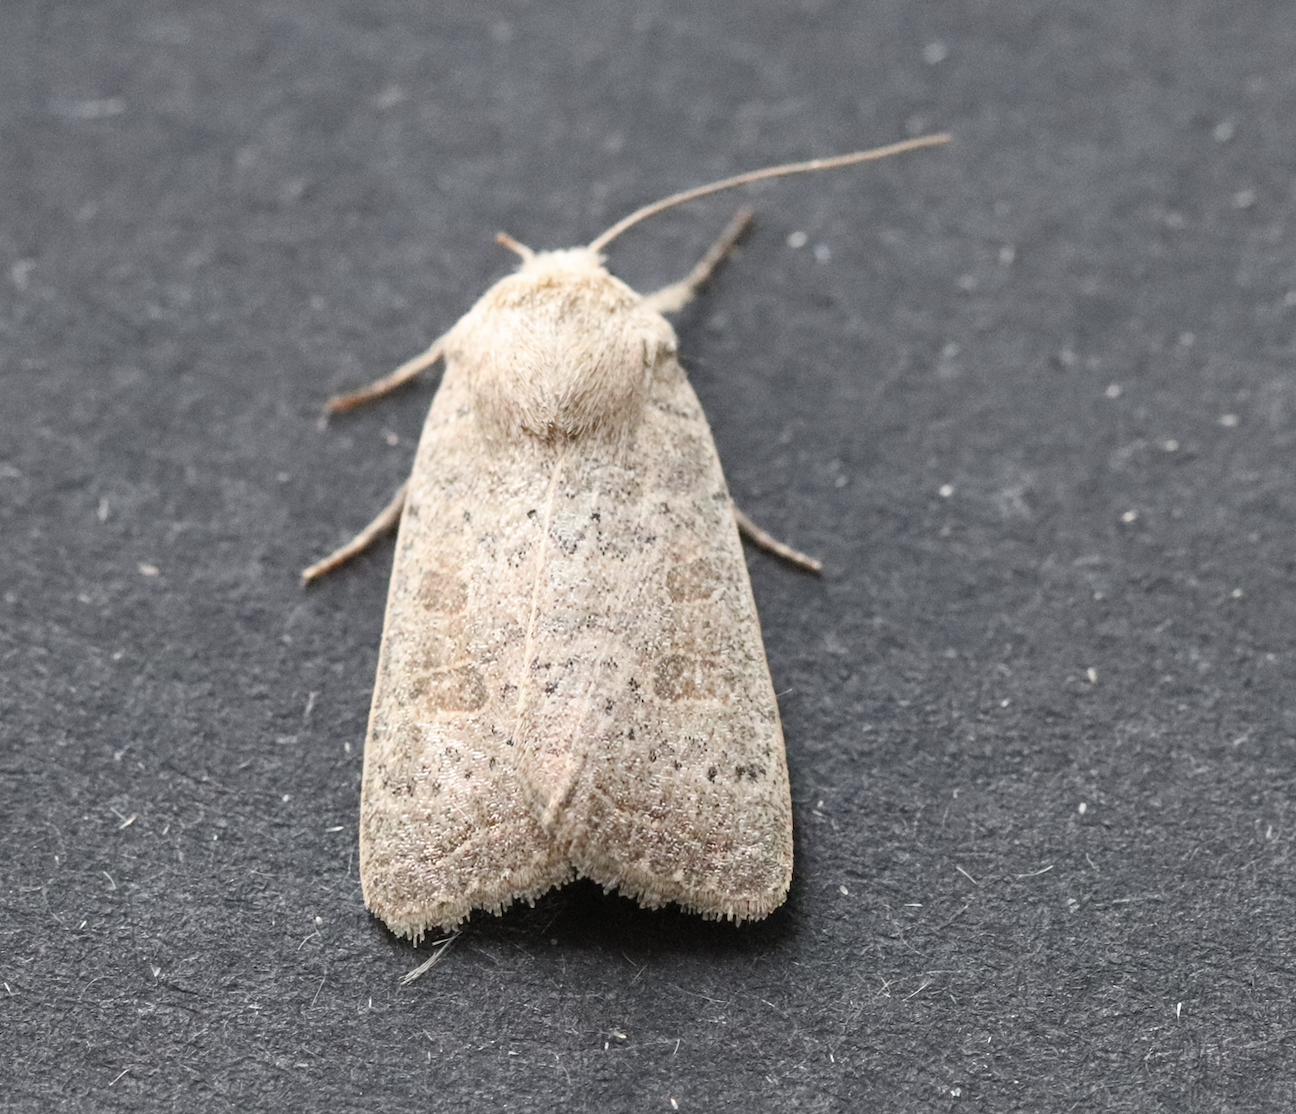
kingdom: Animalia
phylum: Arthropoda
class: Insecta
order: Lepidoptera
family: Noctuidae
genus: Hoplodrina
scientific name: Hoplodrina ambigua
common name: Vine's rustic
